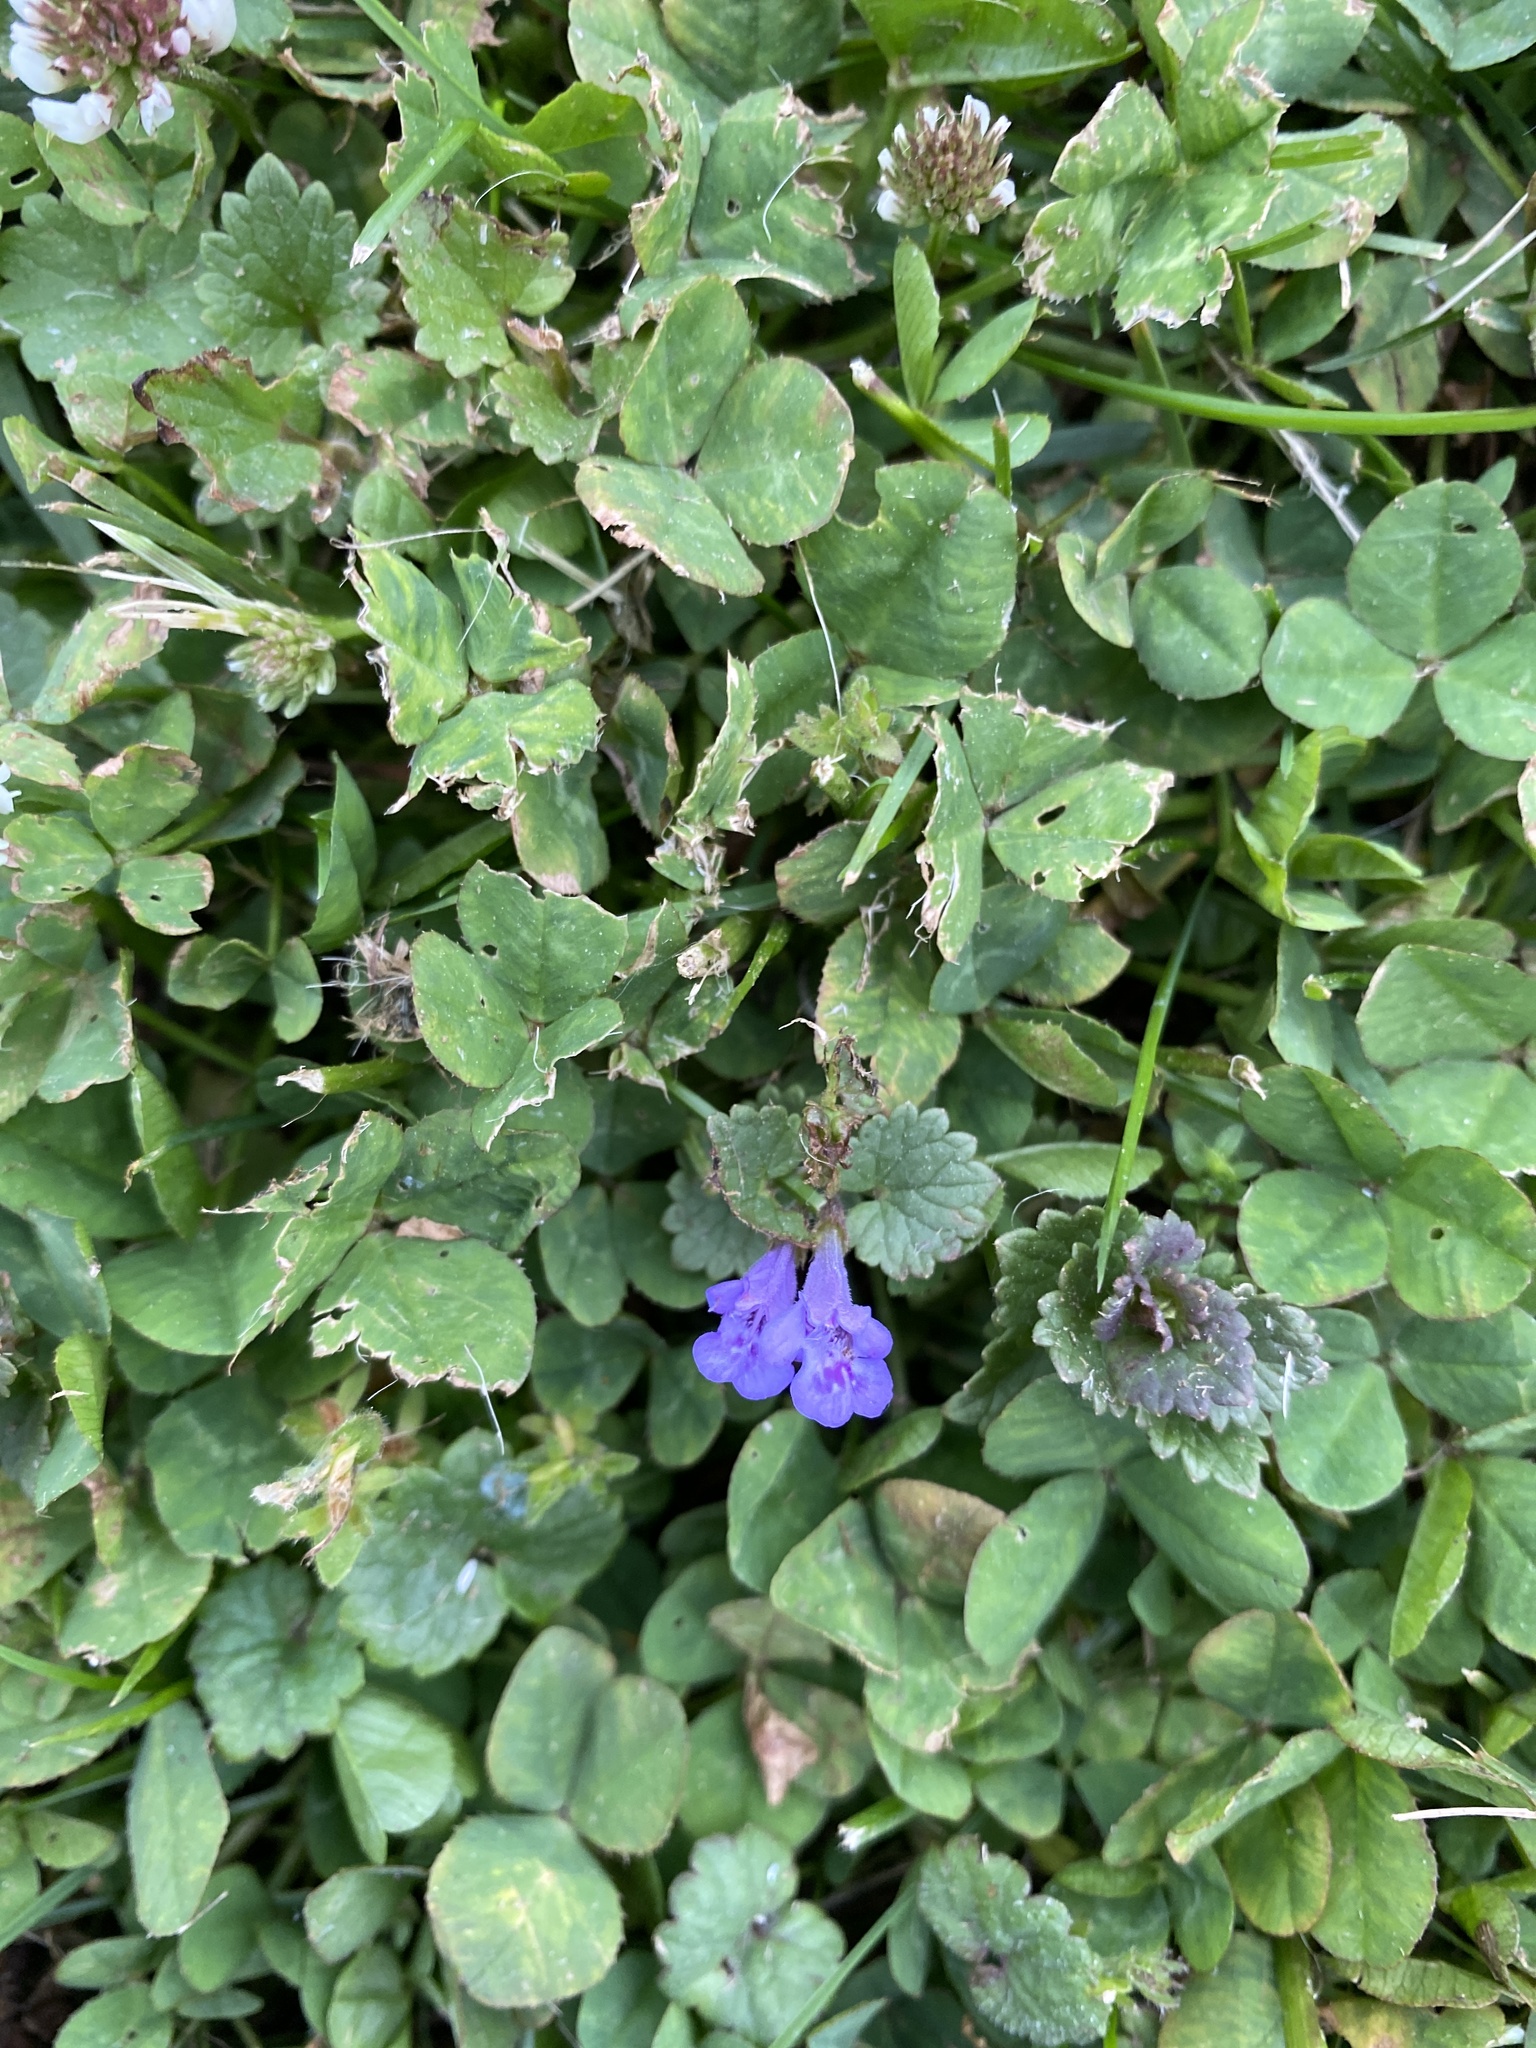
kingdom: Plantae
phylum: Tracheophyta
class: Magnoliopsida
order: Lamiales
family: Lamiaceae
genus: Glechoma
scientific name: Glechoma hederacea
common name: Ground ivy
